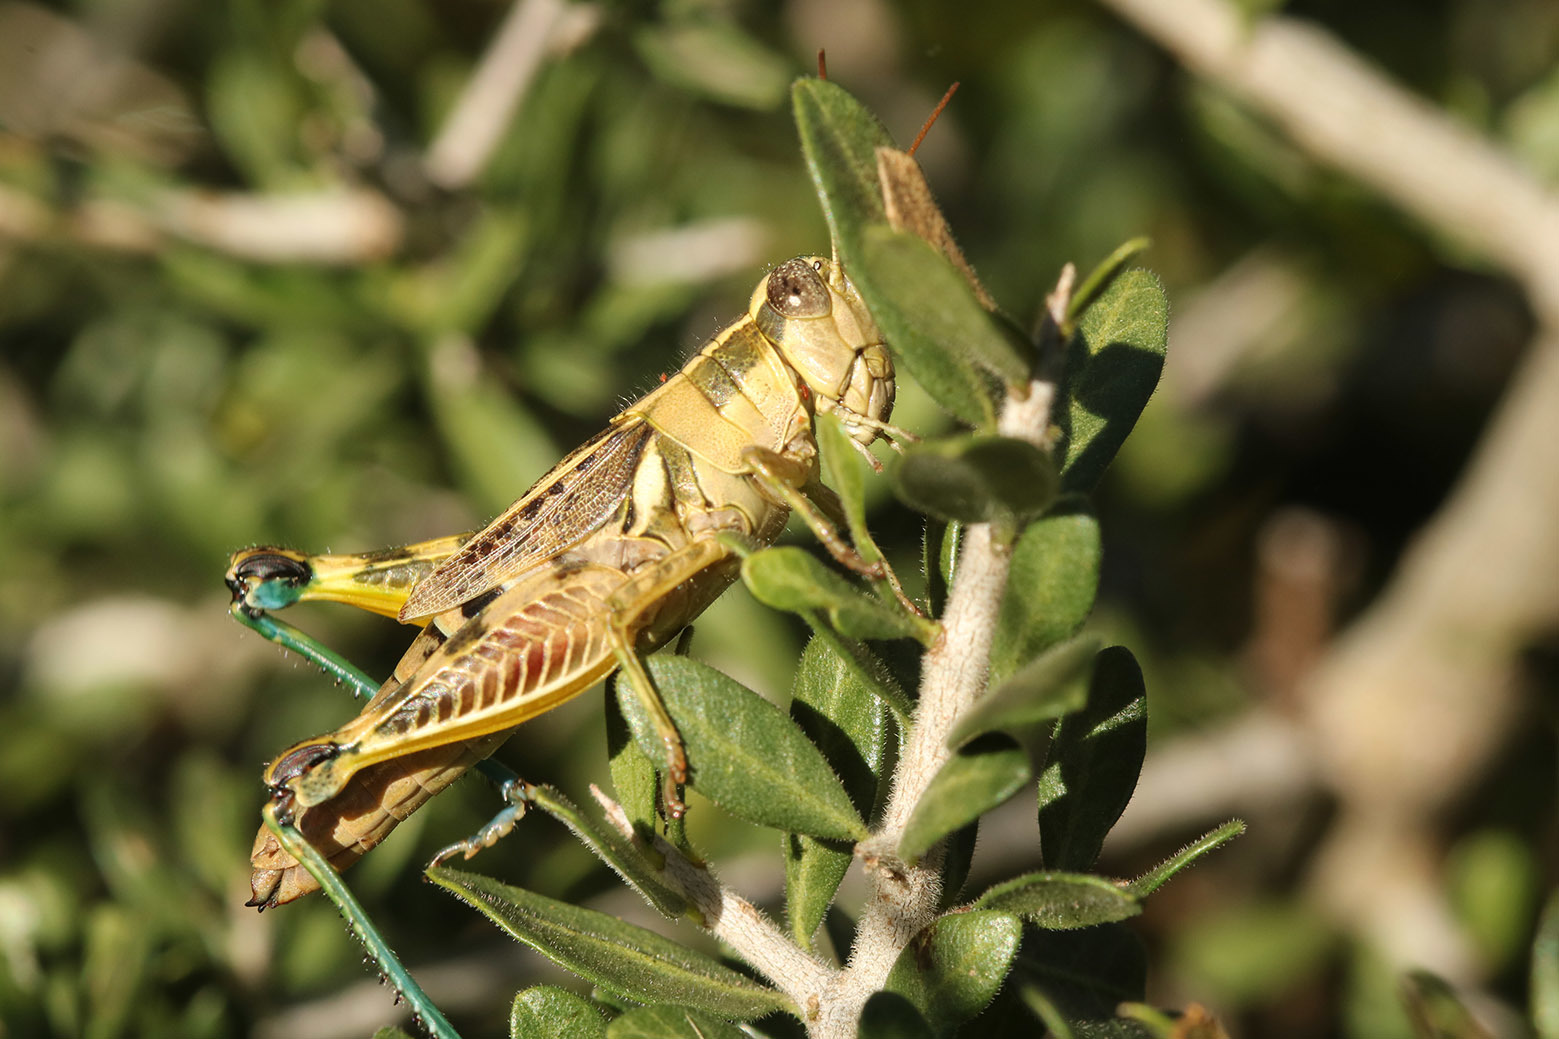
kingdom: Animalia
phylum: Arthropoda
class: Insecta
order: Orthoptera
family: Acrididae
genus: Dichroplus
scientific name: Dichroplus vittatus
